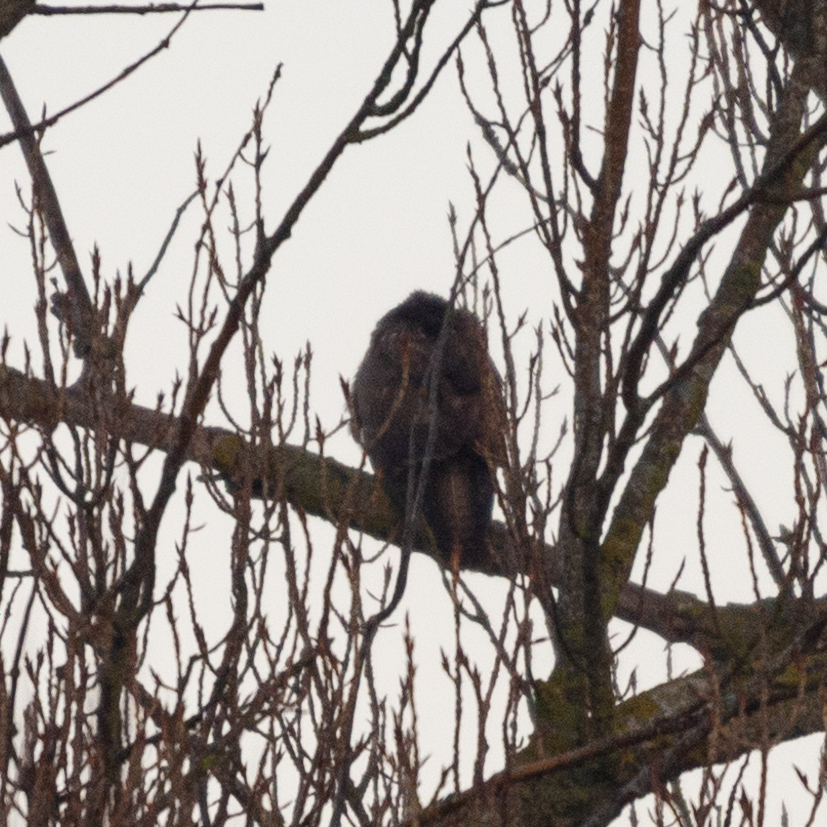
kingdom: Animalia
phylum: Chordata
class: Aves
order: Accipitriformes
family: Accipitridae
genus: Buteo
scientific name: Buteo buteo
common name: Common buzzard
